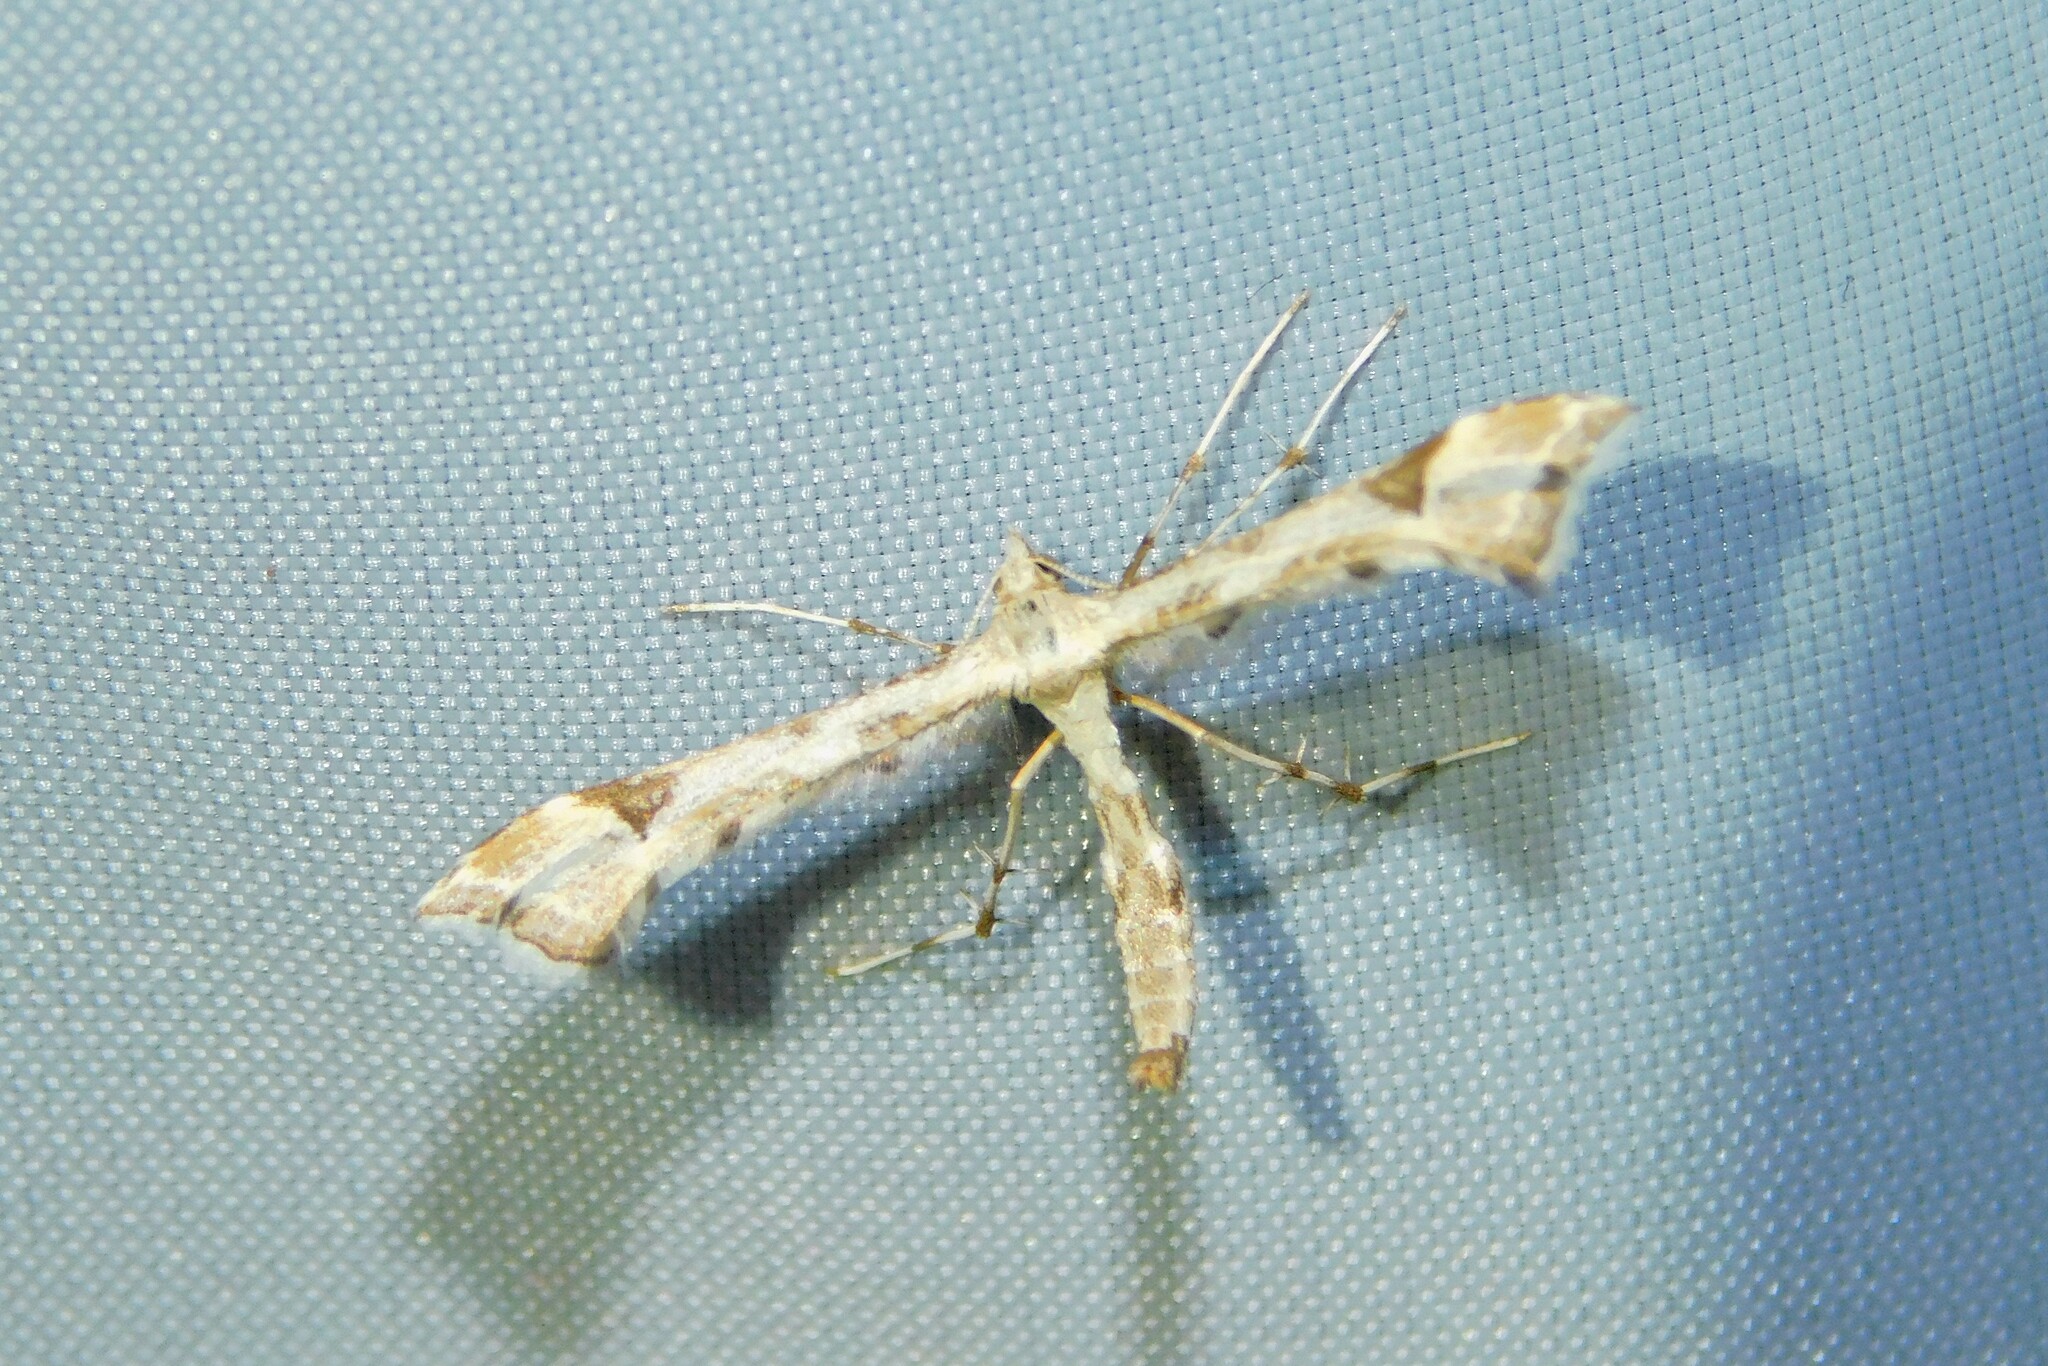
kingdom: Animalia
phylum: Arthropoda
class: Insecta
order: Lepidoptera
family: Pterophoridae
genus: Platyptilia
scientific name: Platyptilia gonodactyla
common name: Triangle plume
